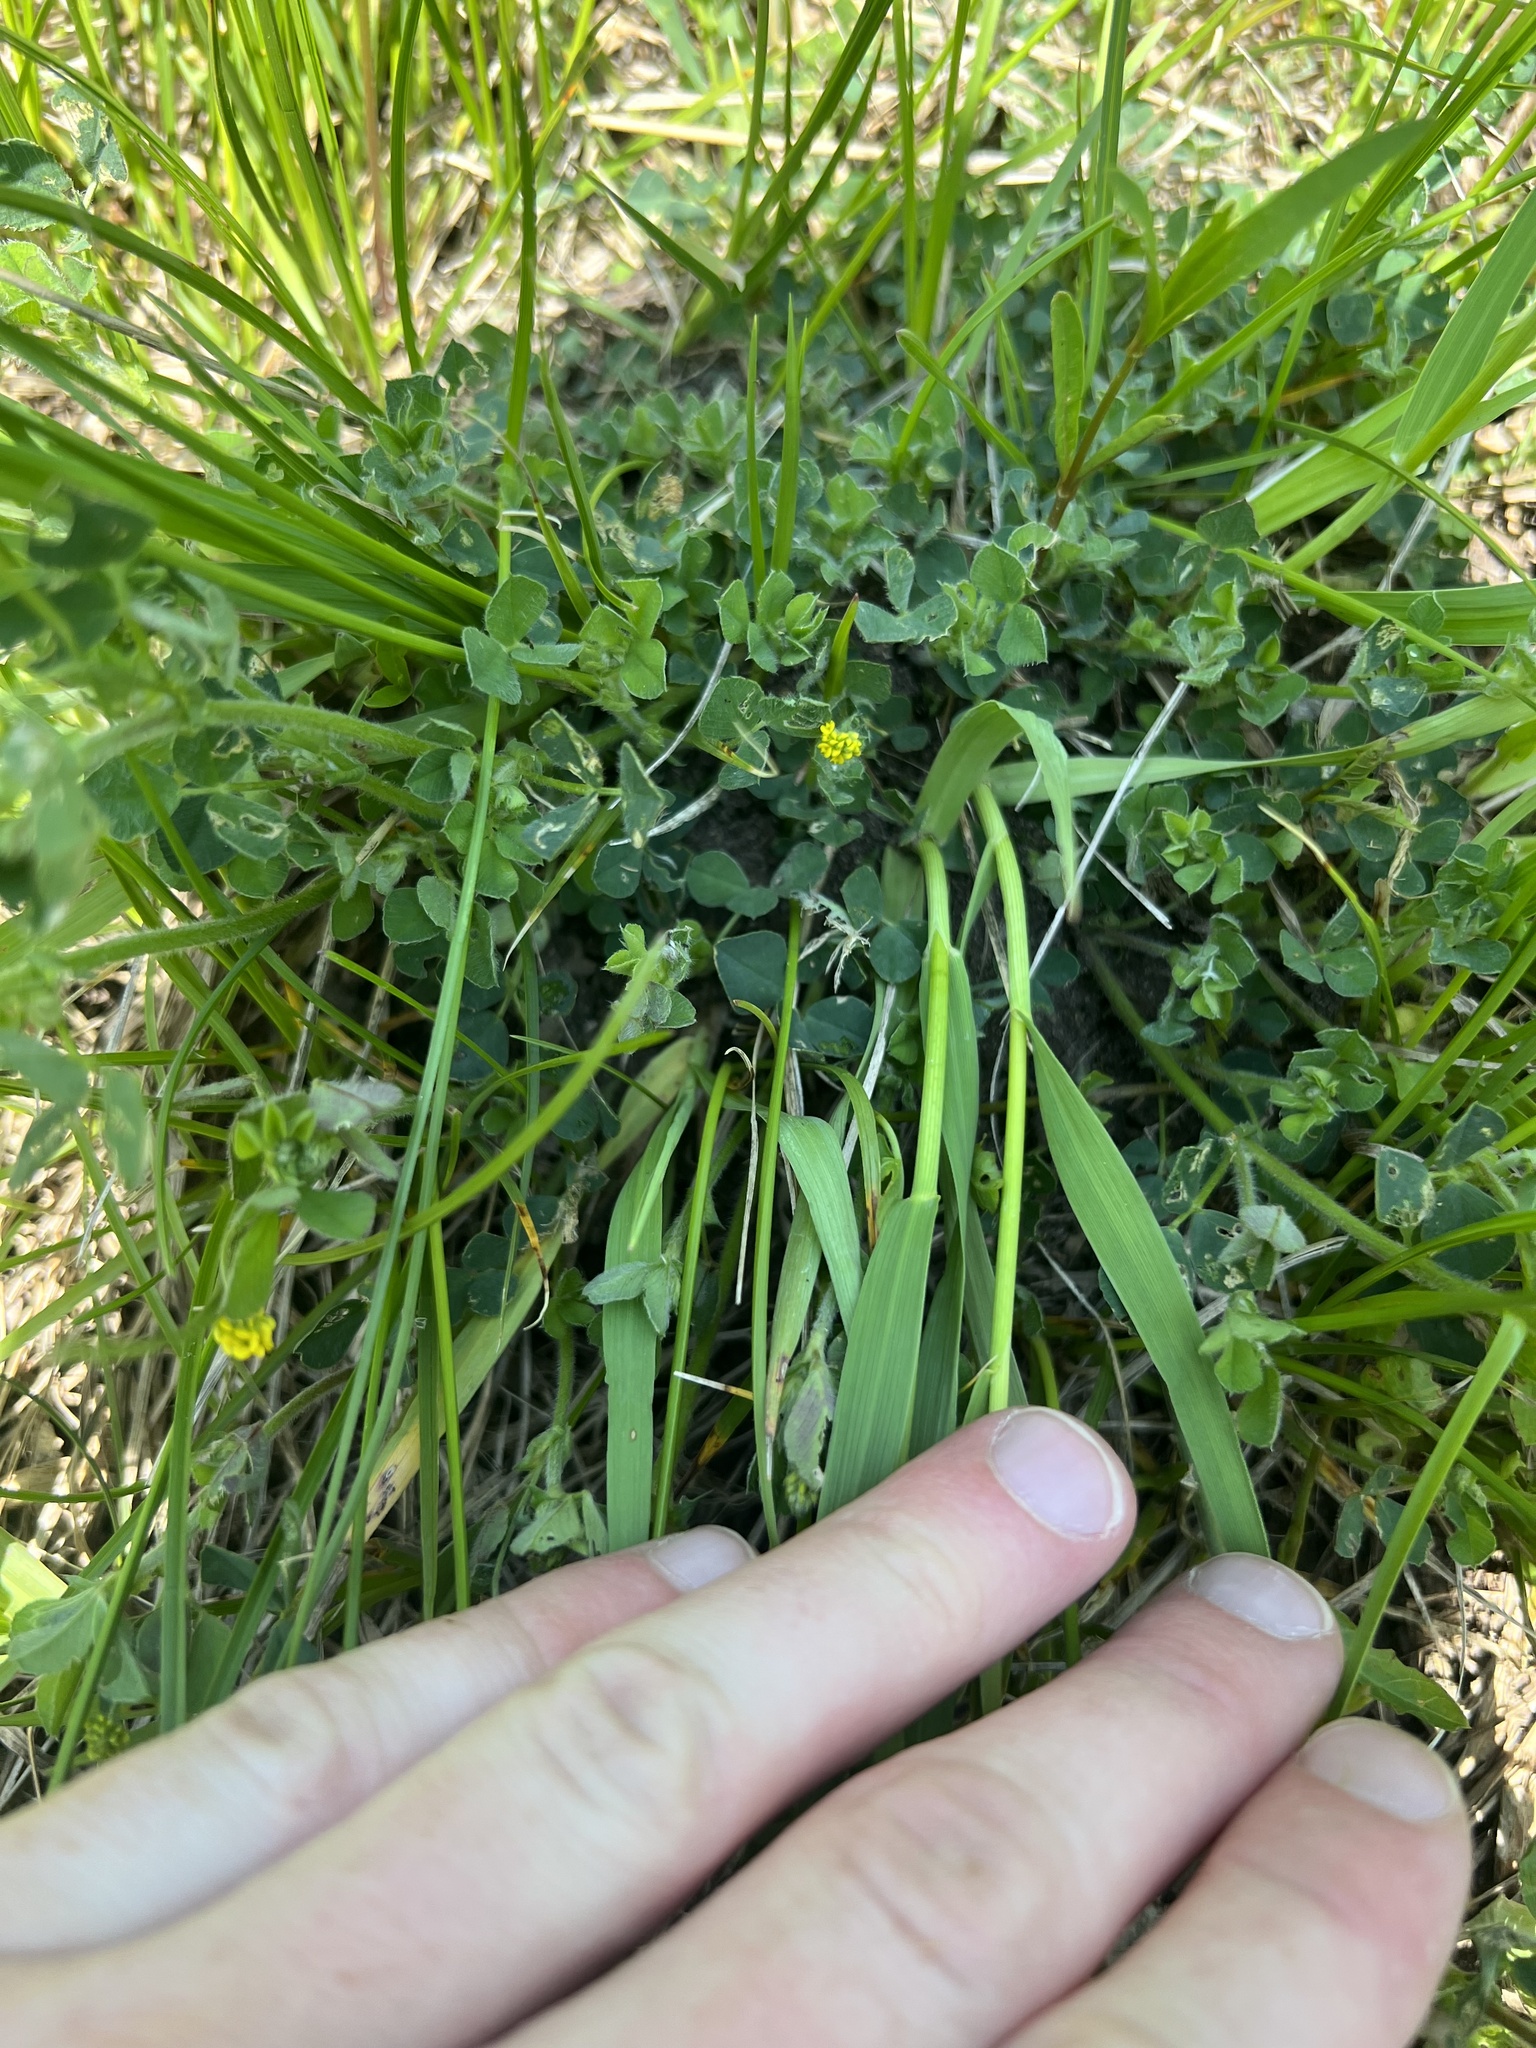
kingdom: Plantae
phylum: Tracheophyta
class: Magnoliopsida
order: Fabales
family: Fabaceae
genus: Medicago
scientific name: Medicago lupulina
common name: Black medick
